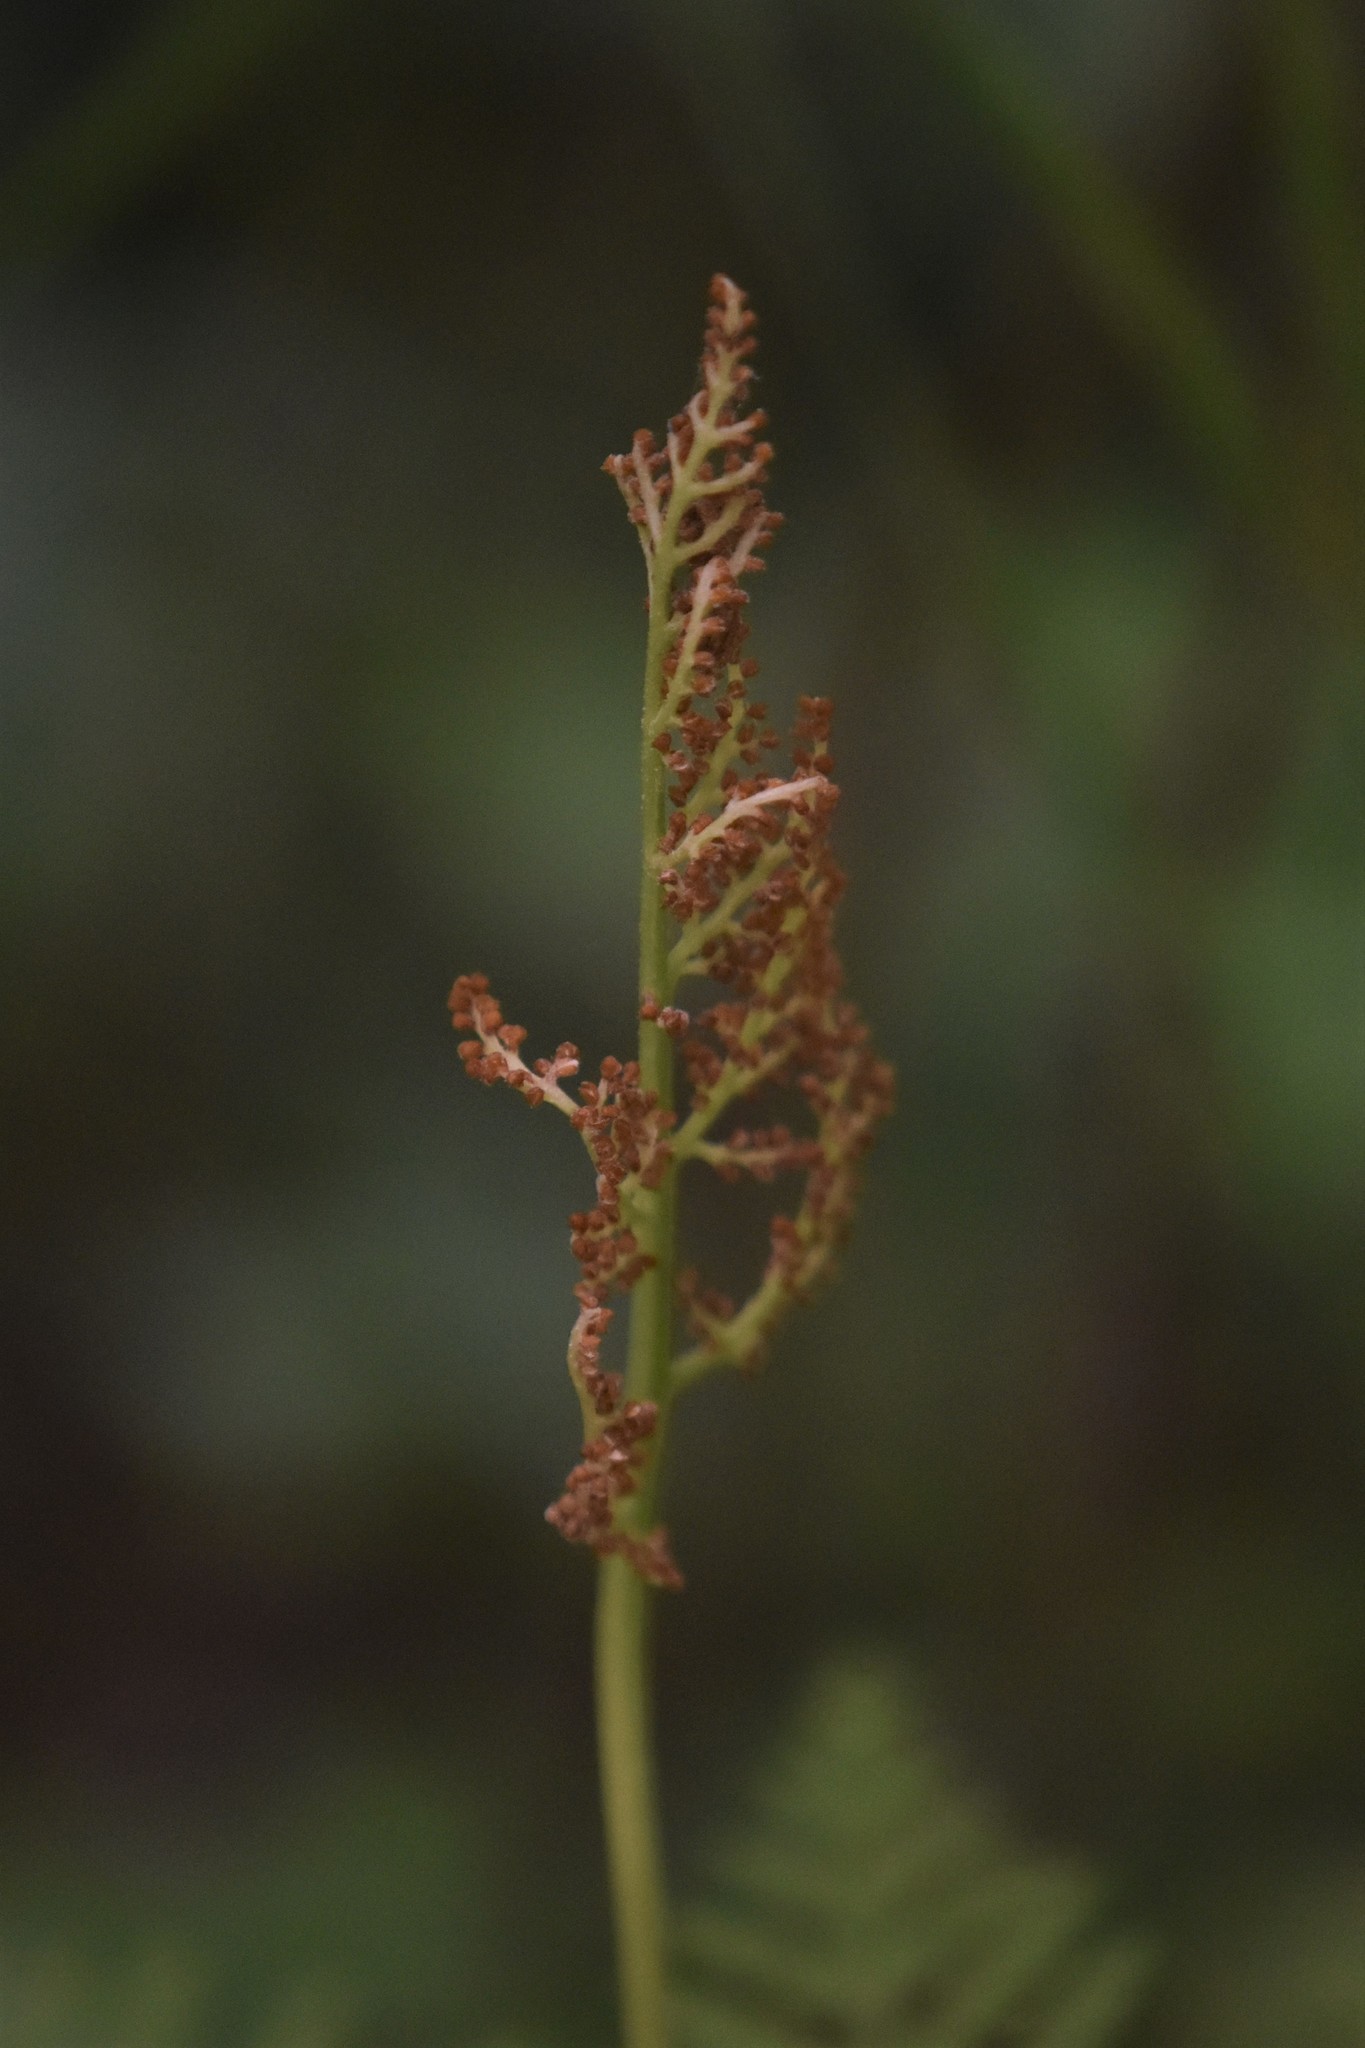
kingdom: Plantae
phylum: Tracheophyta
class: Polypodiopsida
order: Ophioglossales
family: Ophioglossaceae
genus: Botrypus
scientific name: Botrypus virginianus
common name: Common grapefern
